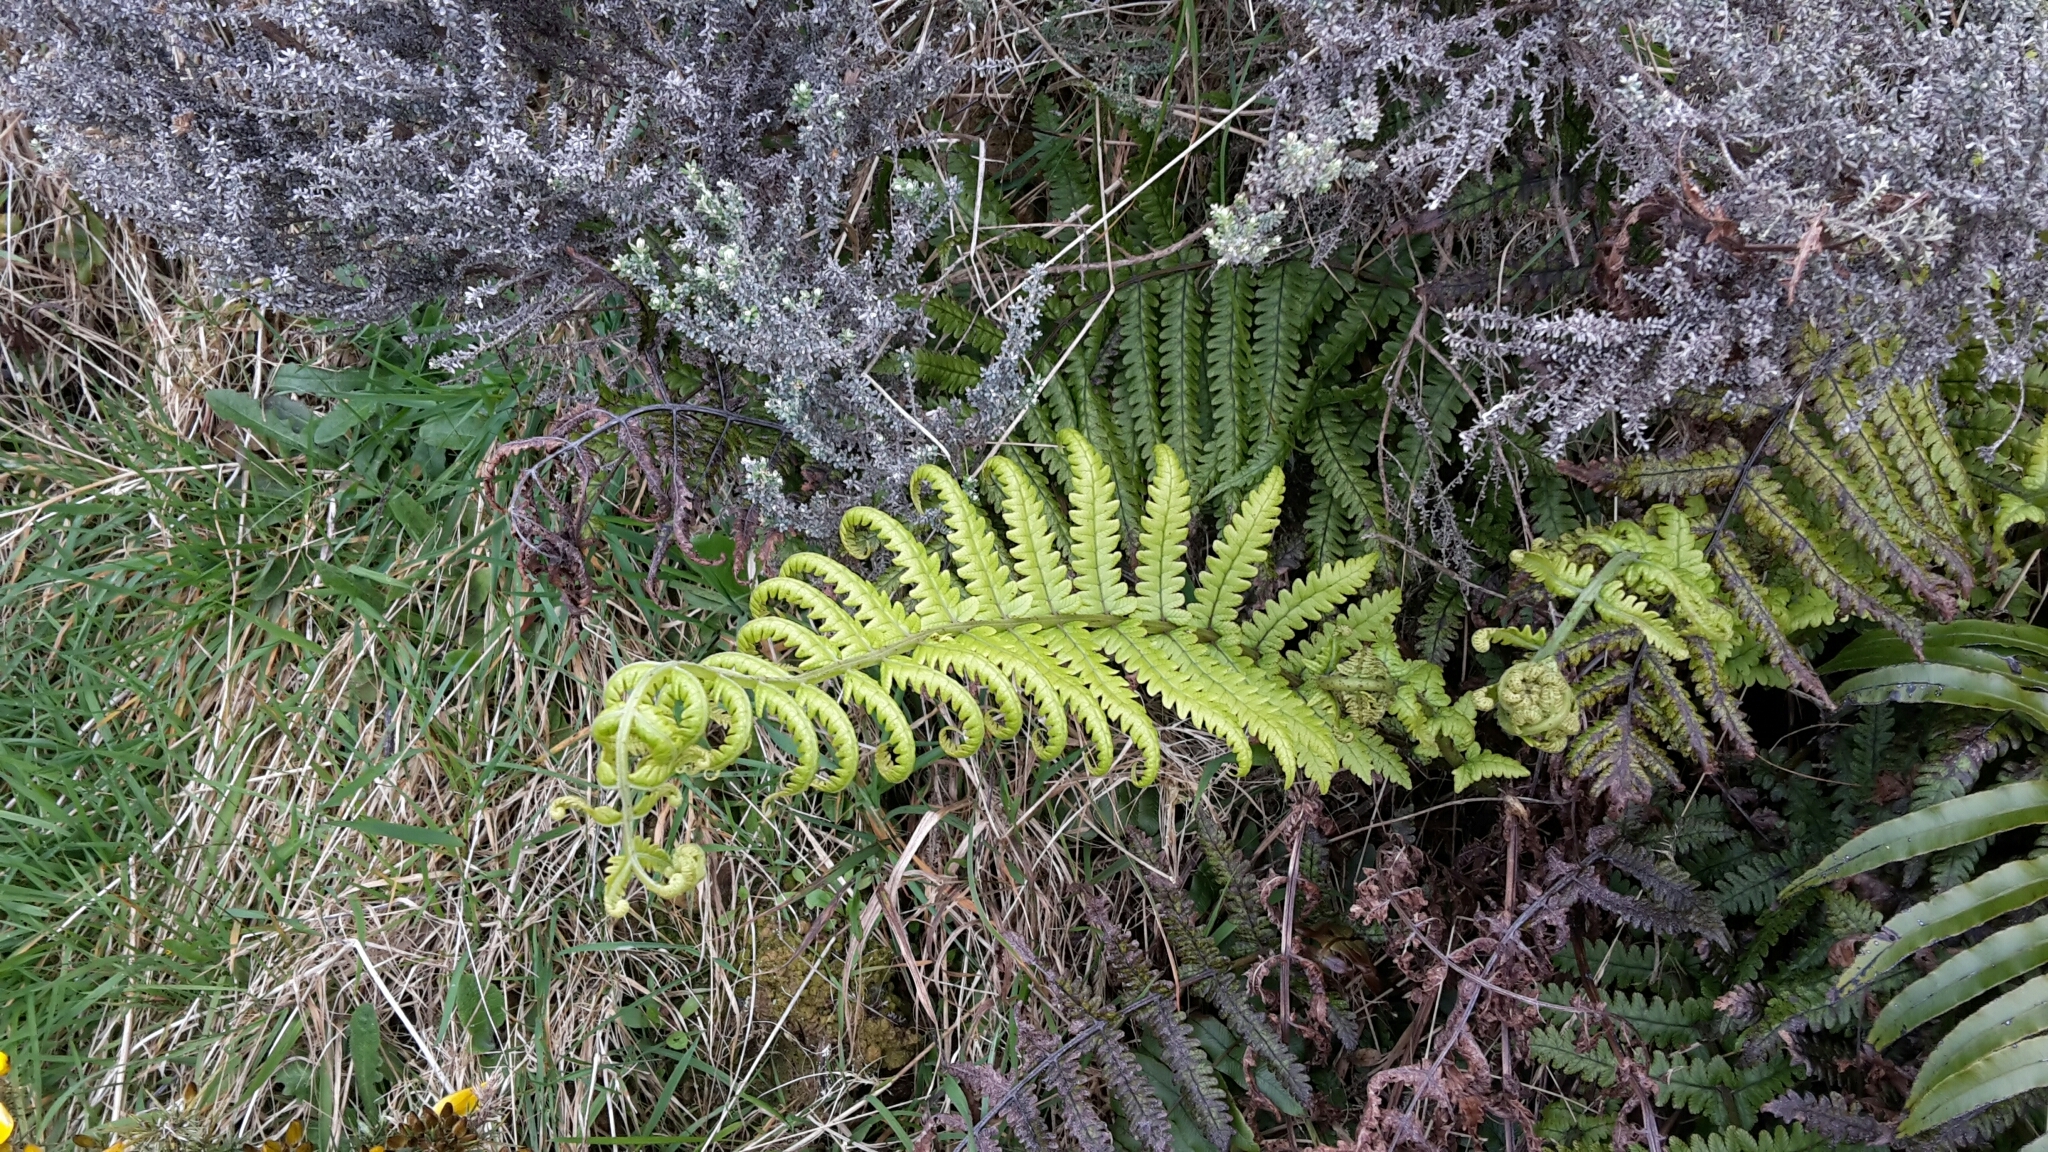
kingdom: Plantae
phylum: Tracheophyta
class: Polypodiopsida
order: Polypodiales
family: Thelypteridaceae
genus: Pakau
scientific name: Pakau pennigera
